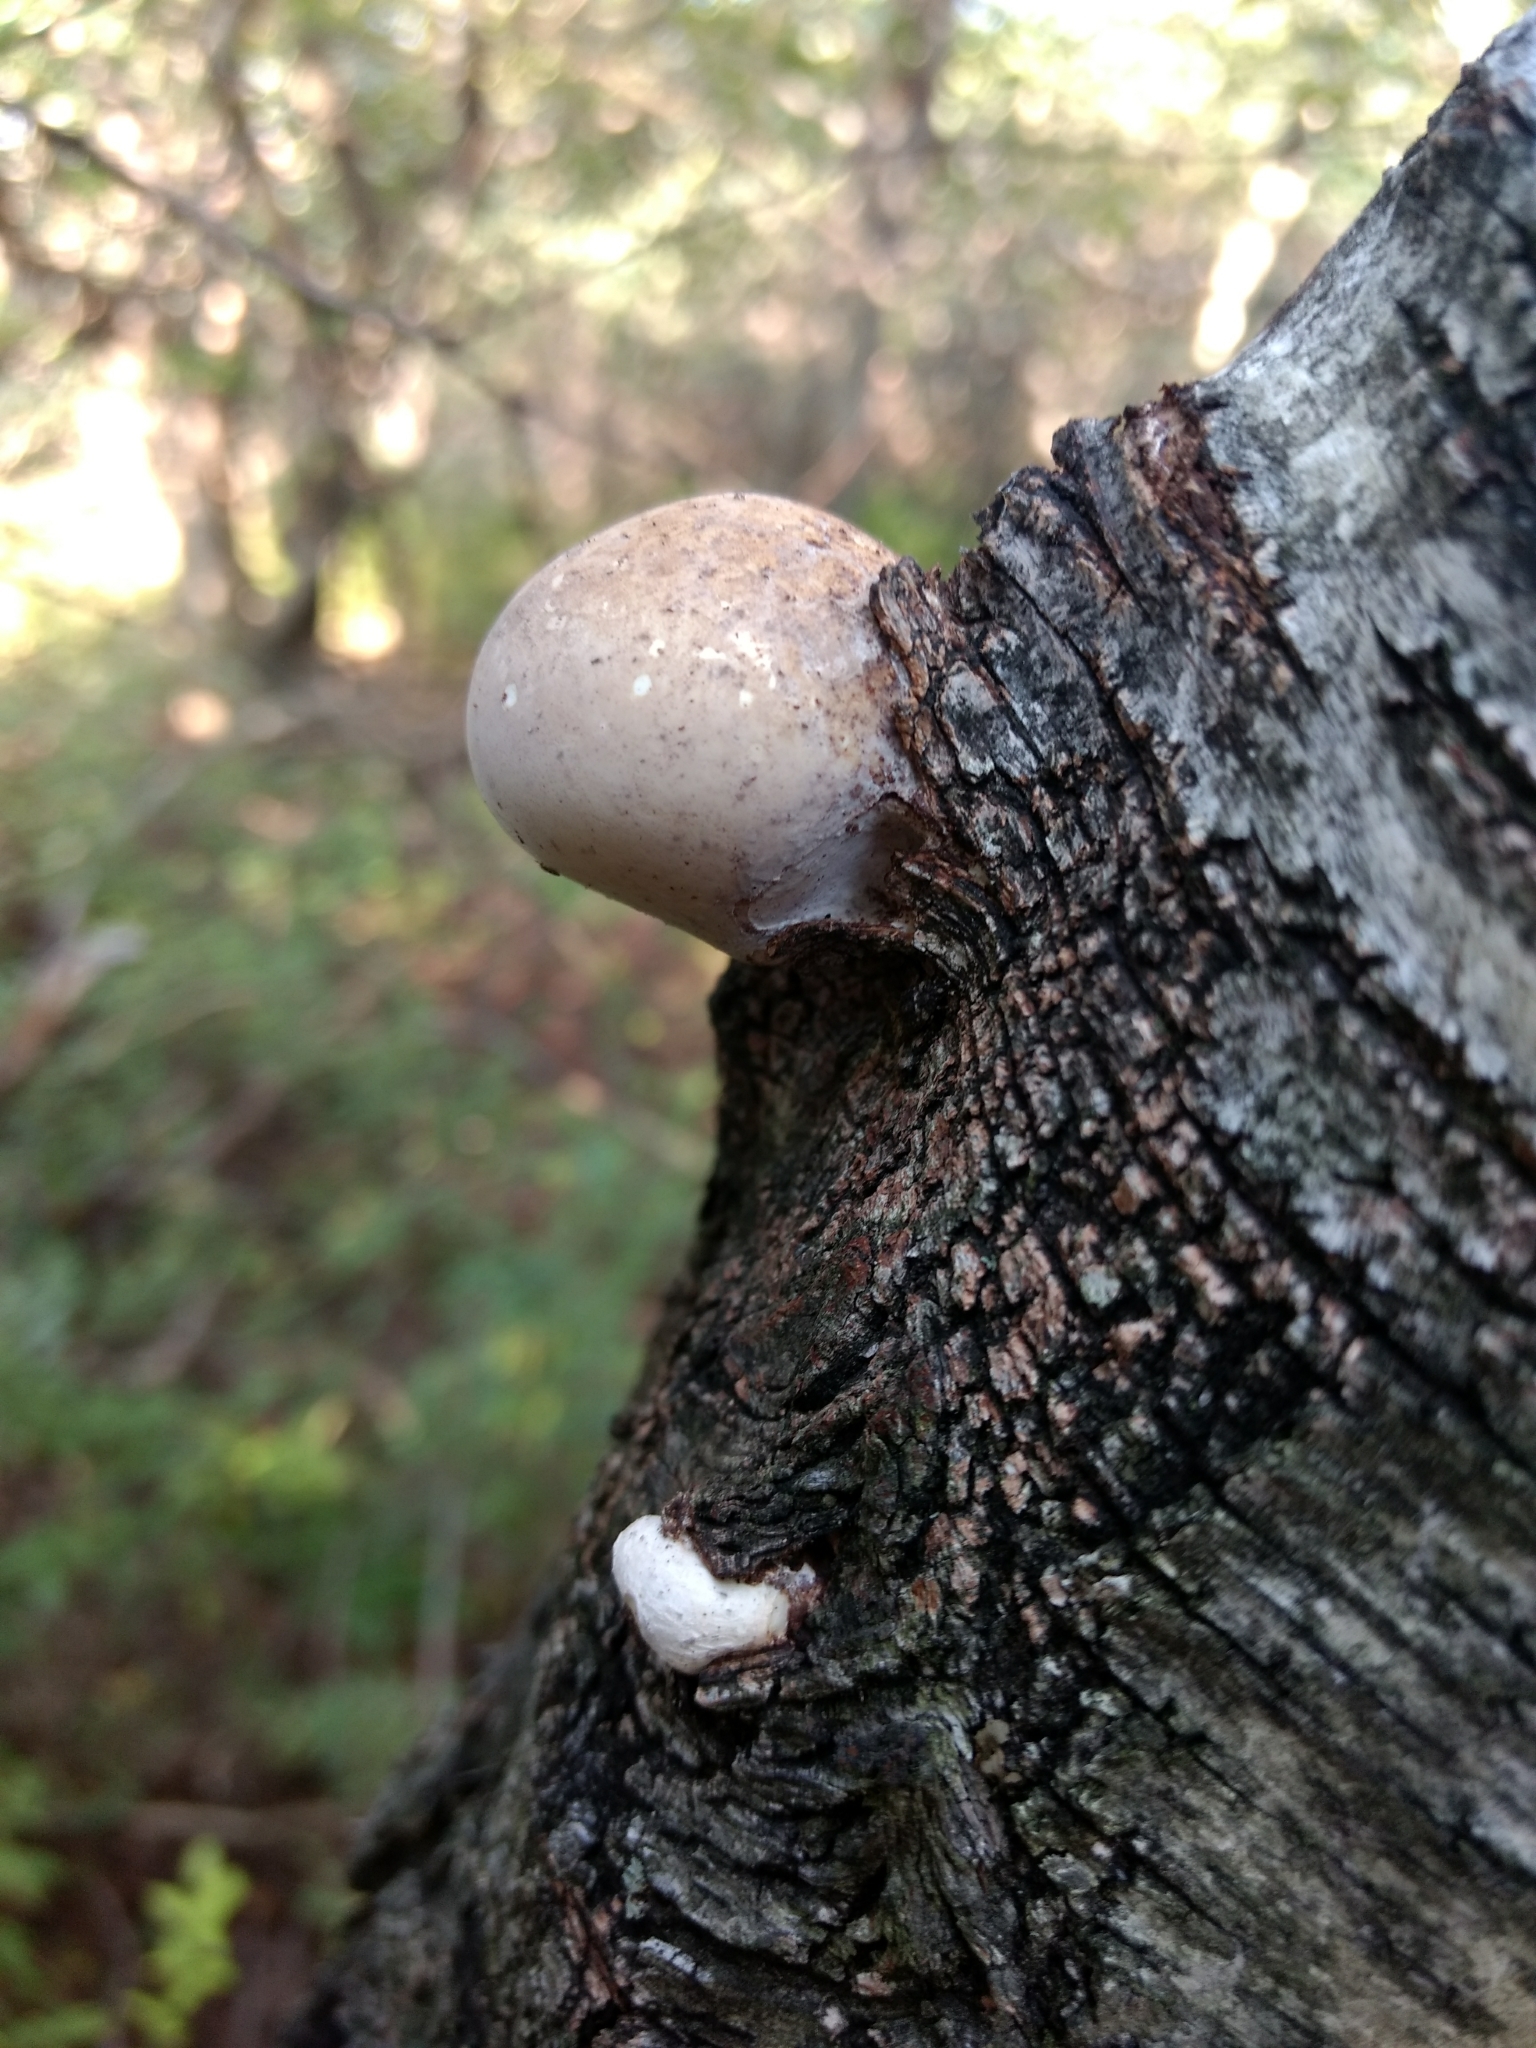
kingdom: Fungi
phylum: Basidiomycota
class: Agaricomycetes
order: Polyporales
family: Fomitopsidaceae
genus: Fomitopsis
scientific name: Fomitopsis betulina
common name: Birch polypore
